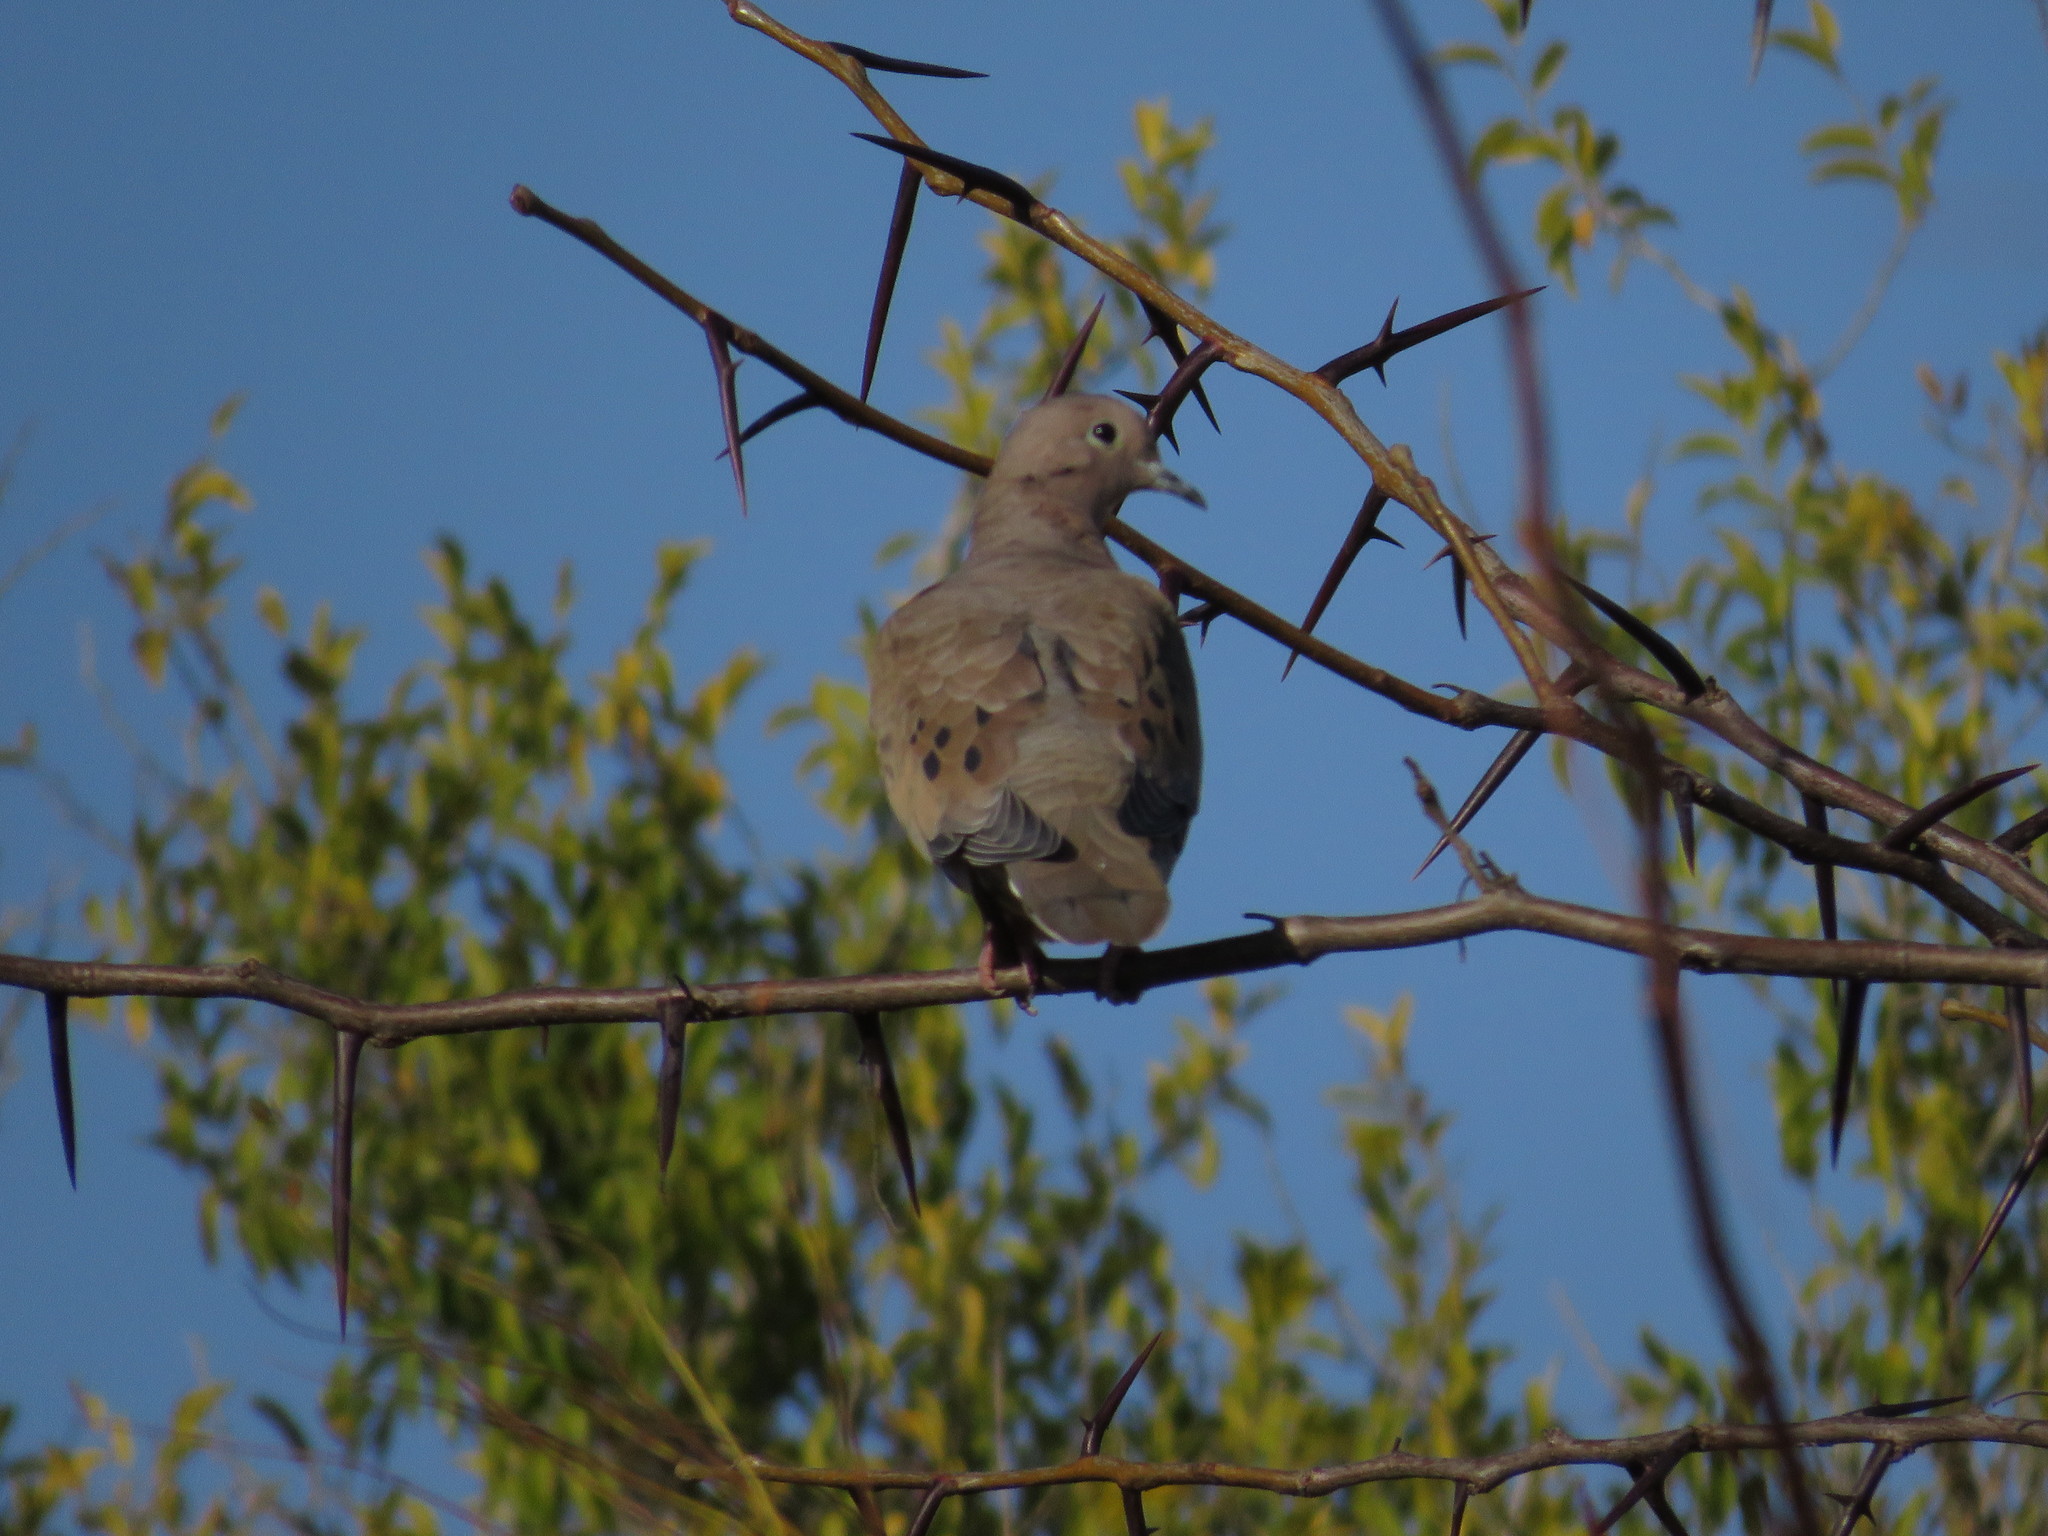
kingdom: Animalia
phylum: Chordata
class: Aves
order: Columbiformes
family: Columbidae
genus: Zenaida
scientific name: Zenaida auriculata
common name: Eared dove
